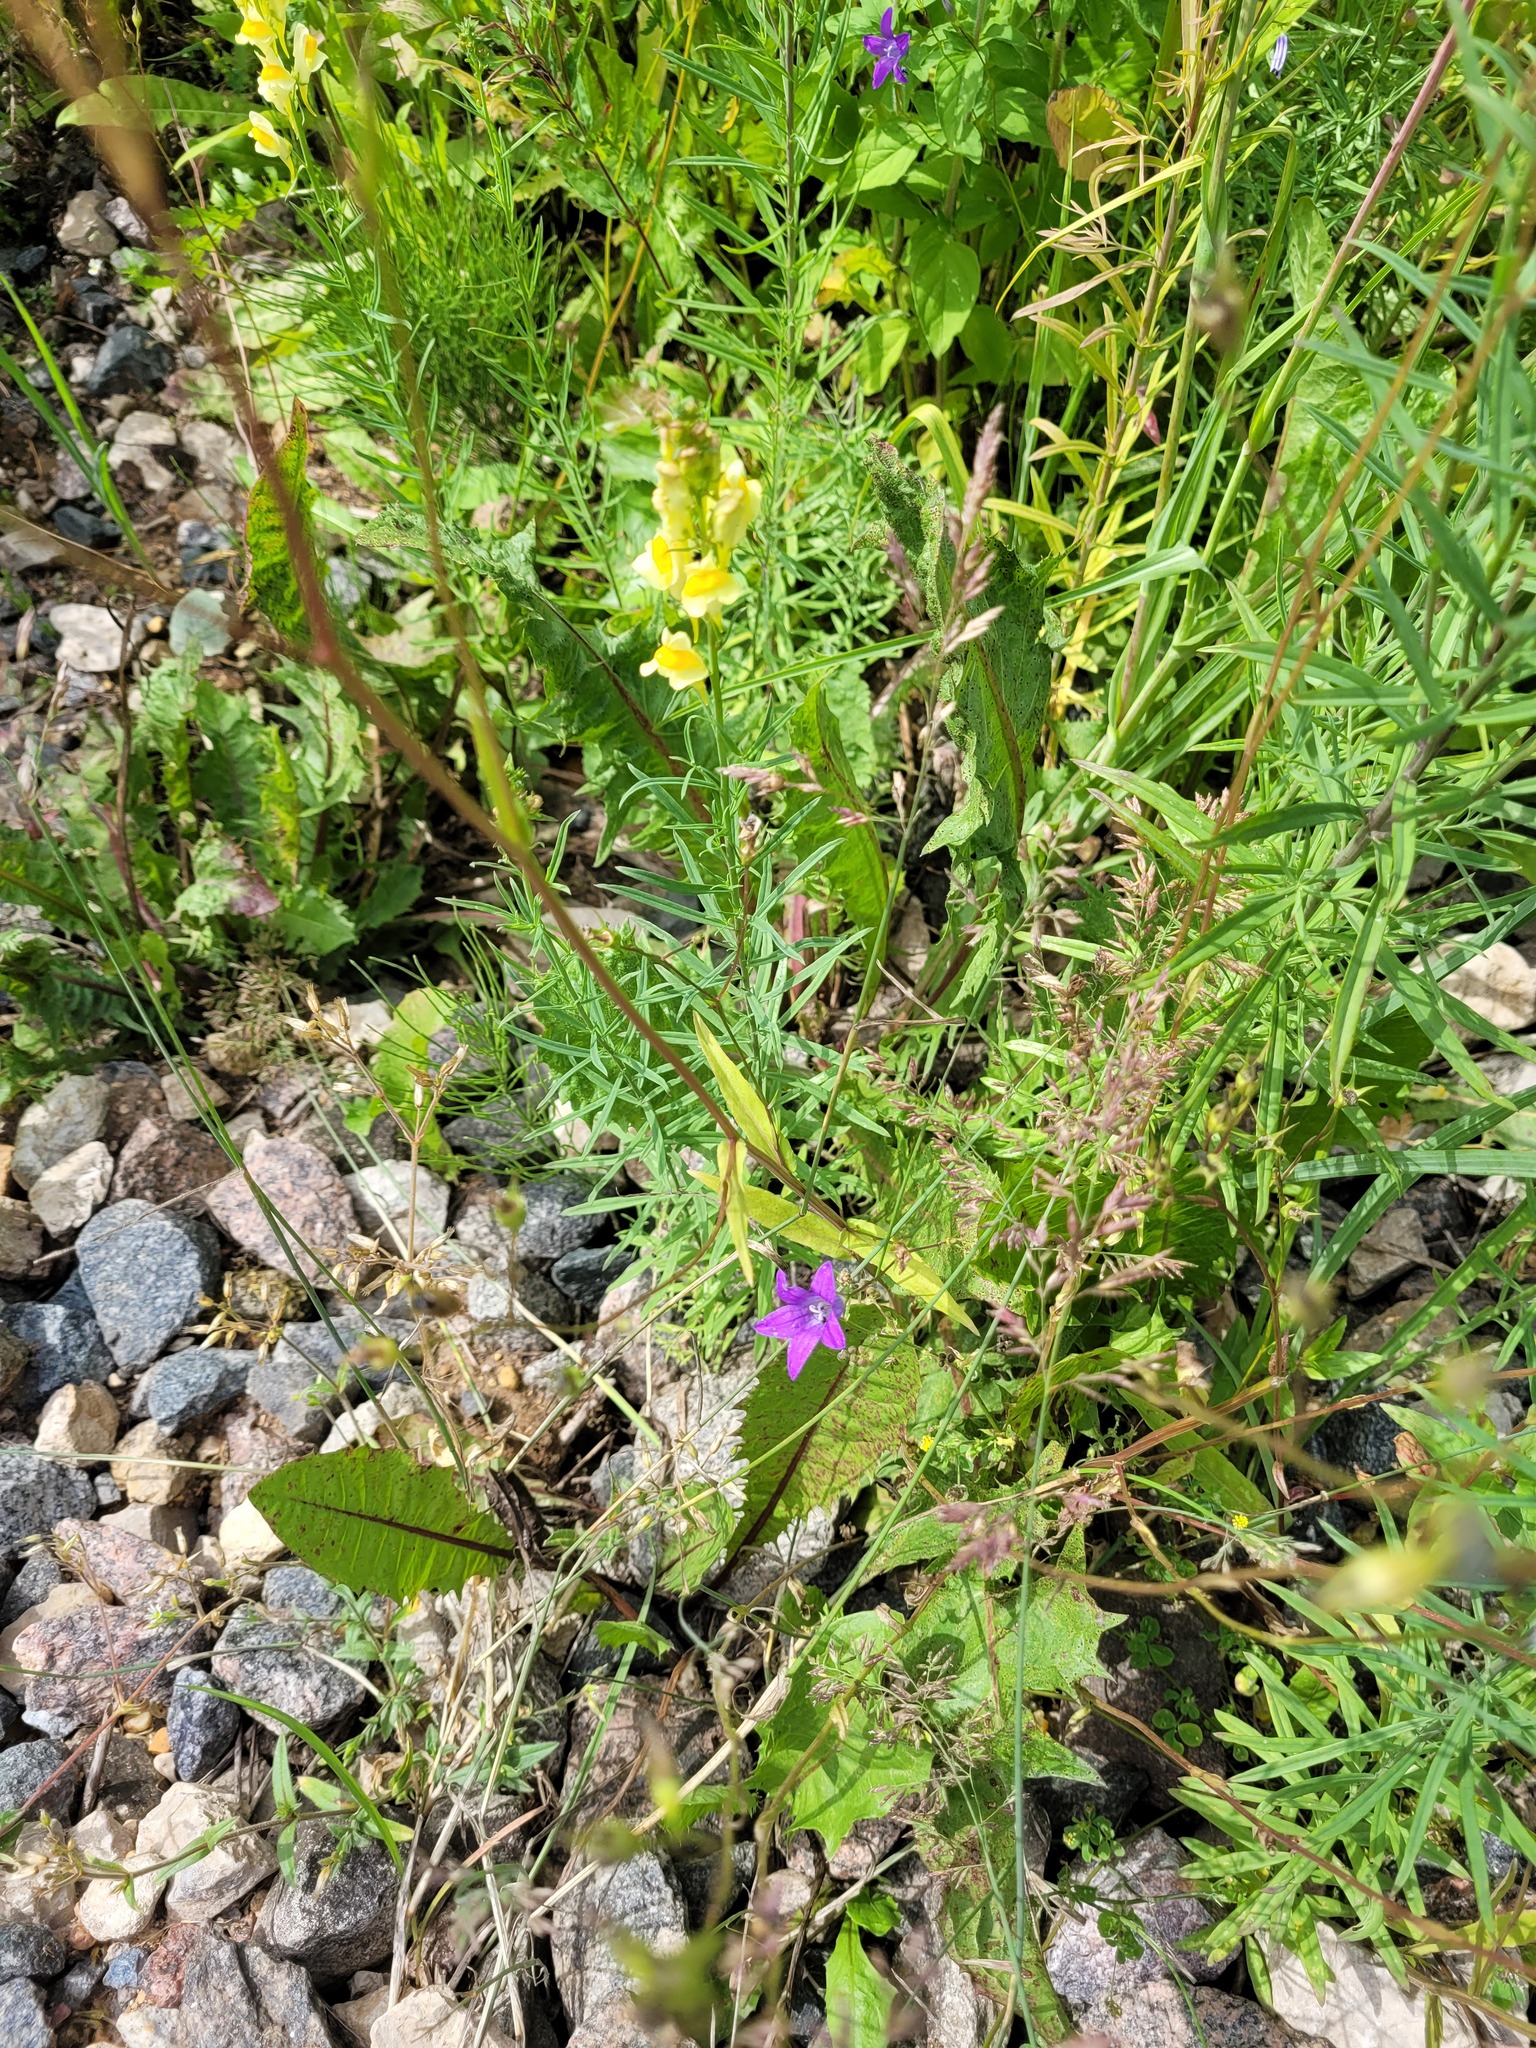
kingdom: Plantae
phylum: Tracheophyta
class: Magnoliopsida
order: Asterales
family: Campanulaceae
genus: Campanula
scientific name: Campanula patula
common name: Spreading bellflower
